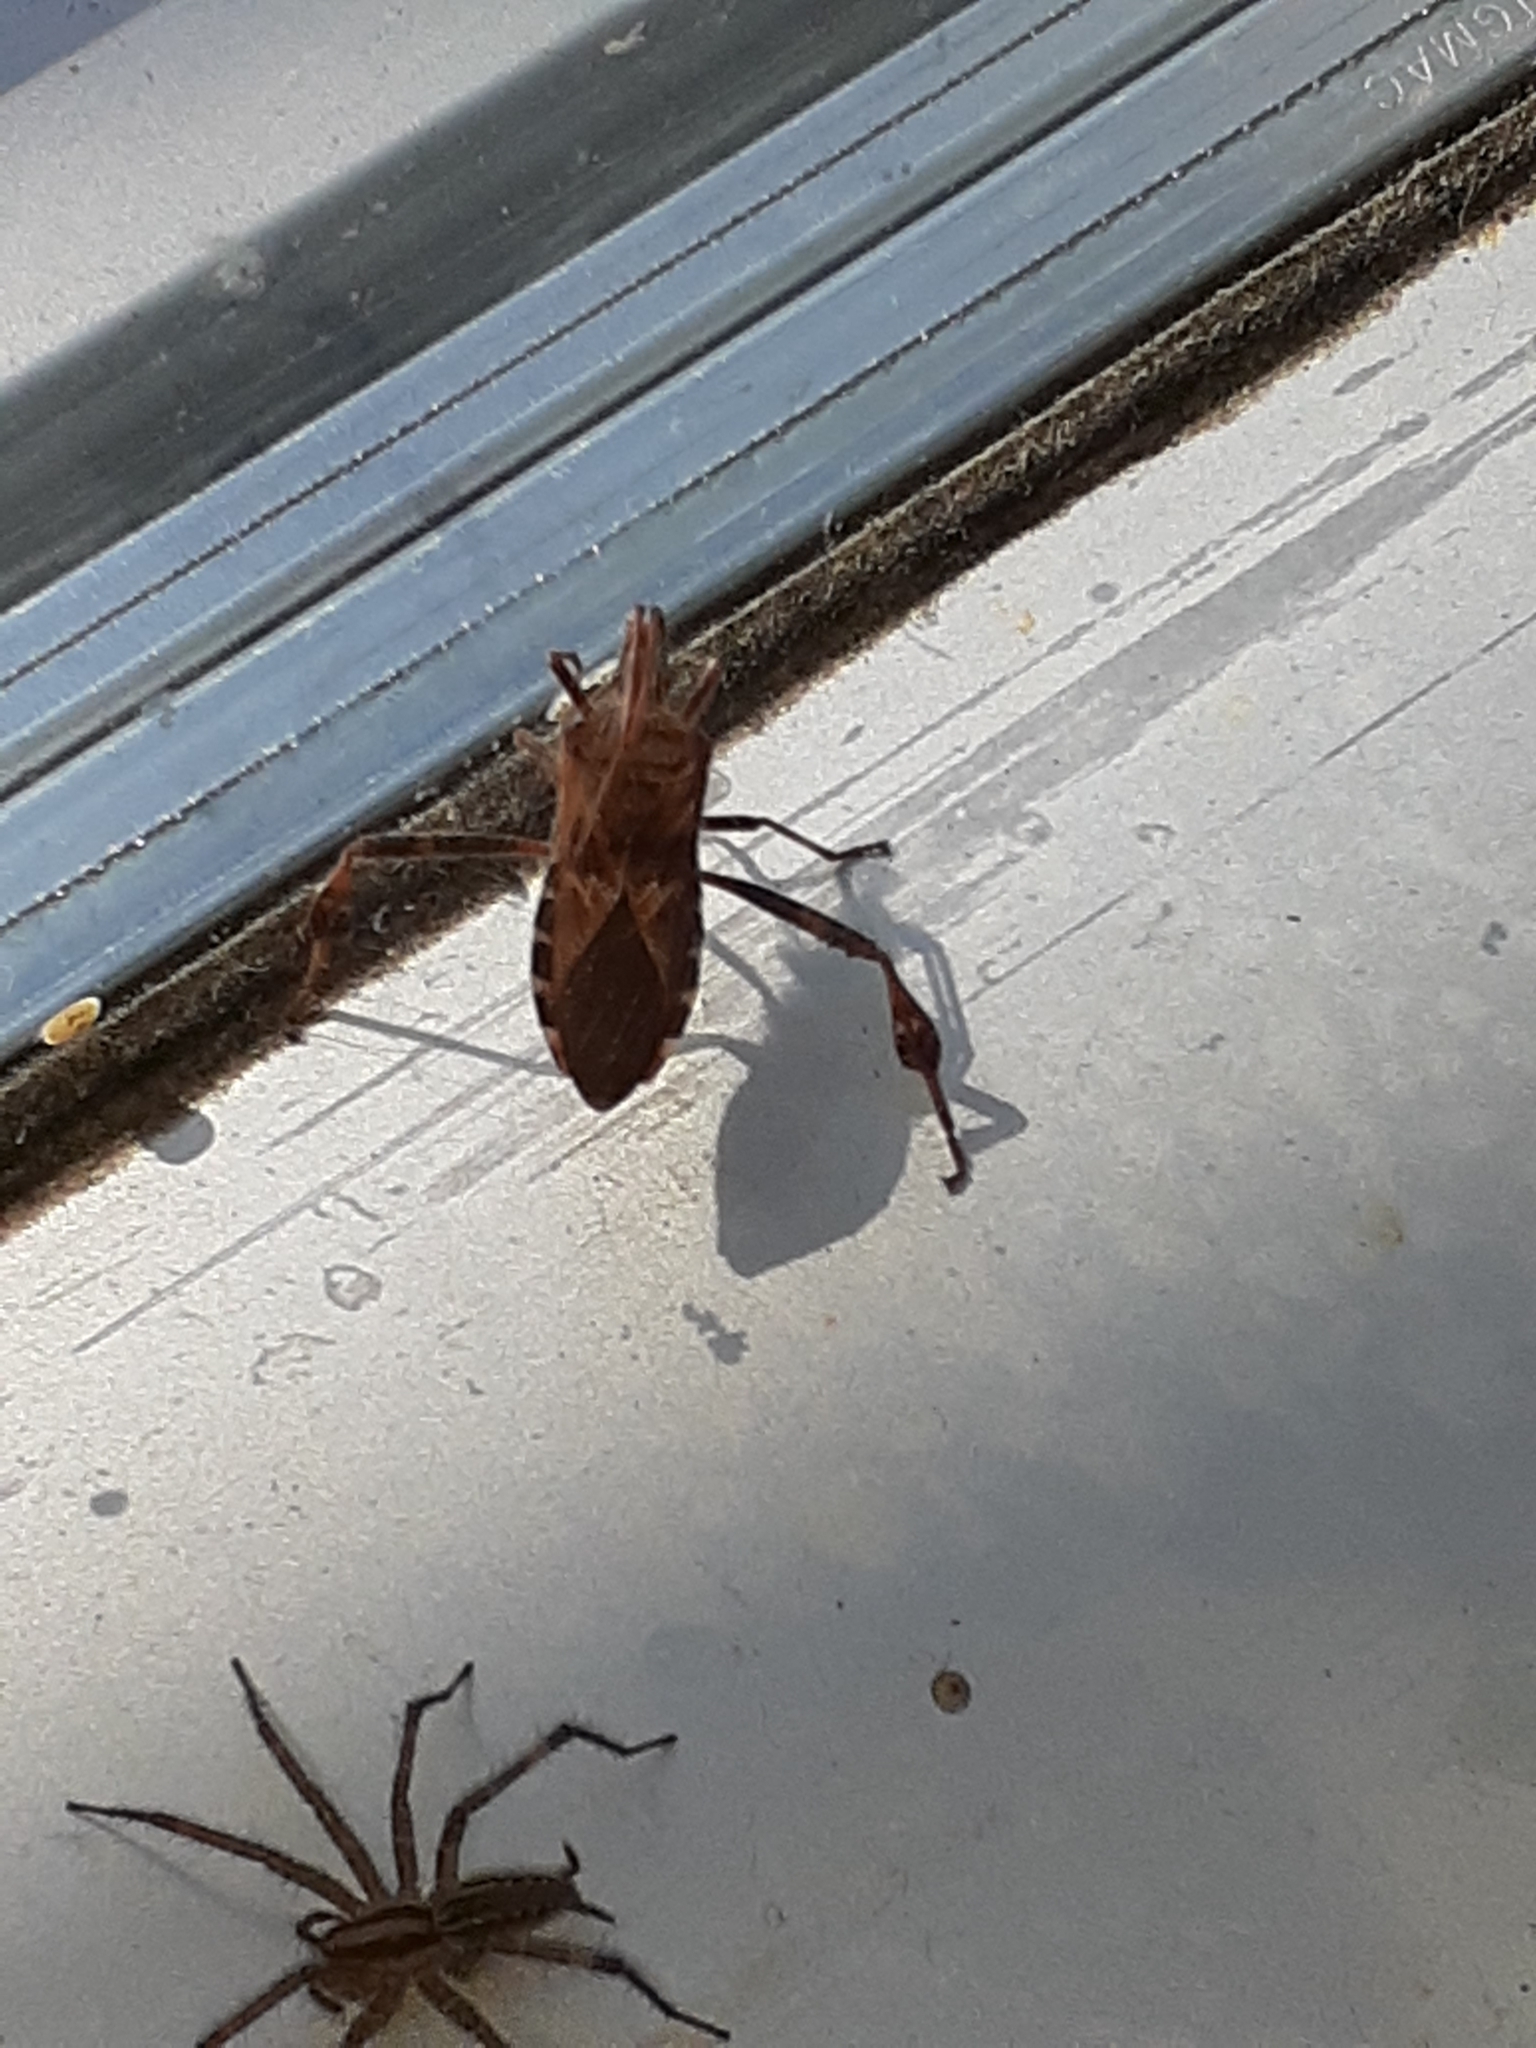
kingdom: Animalia
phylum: Arthropoda
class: Insecta
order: Hemiptera
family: Coreidae
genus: Leptoglossus
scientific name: Leptoglossus occidentalis
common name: Western conifer-seed bug
